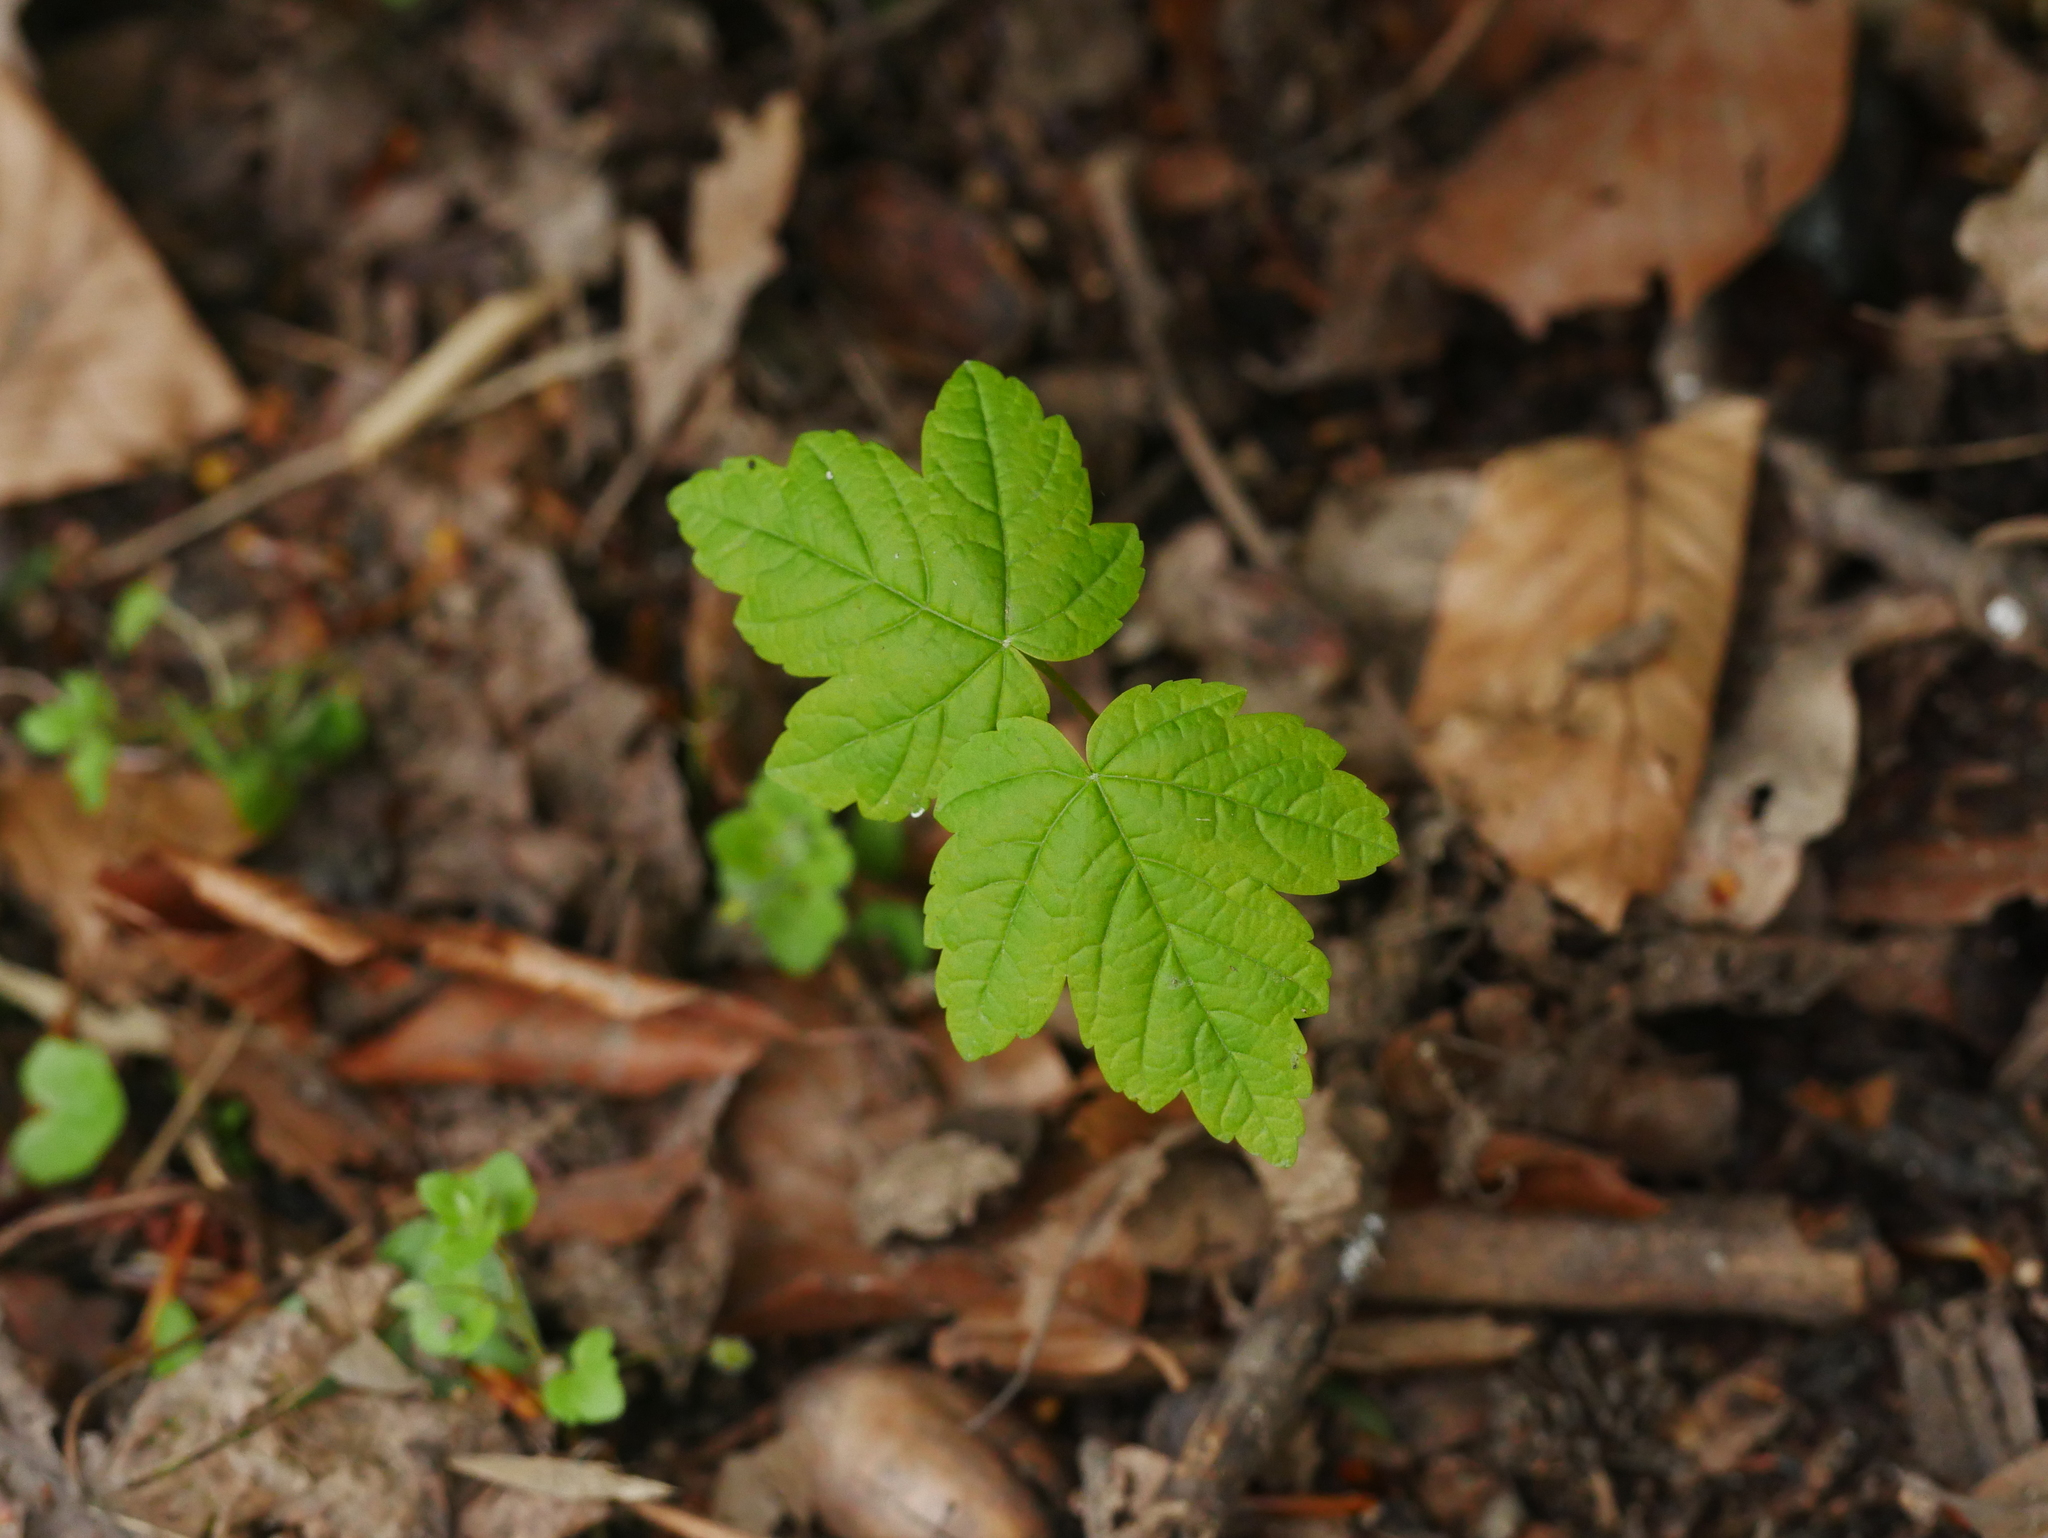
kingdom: Plantae
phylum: Tracheophyta
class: Magnoliopsida
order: Sapindales
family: Sapindaceae
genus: Acer
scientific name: Acer pseudoplatanus
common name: Sycamore
